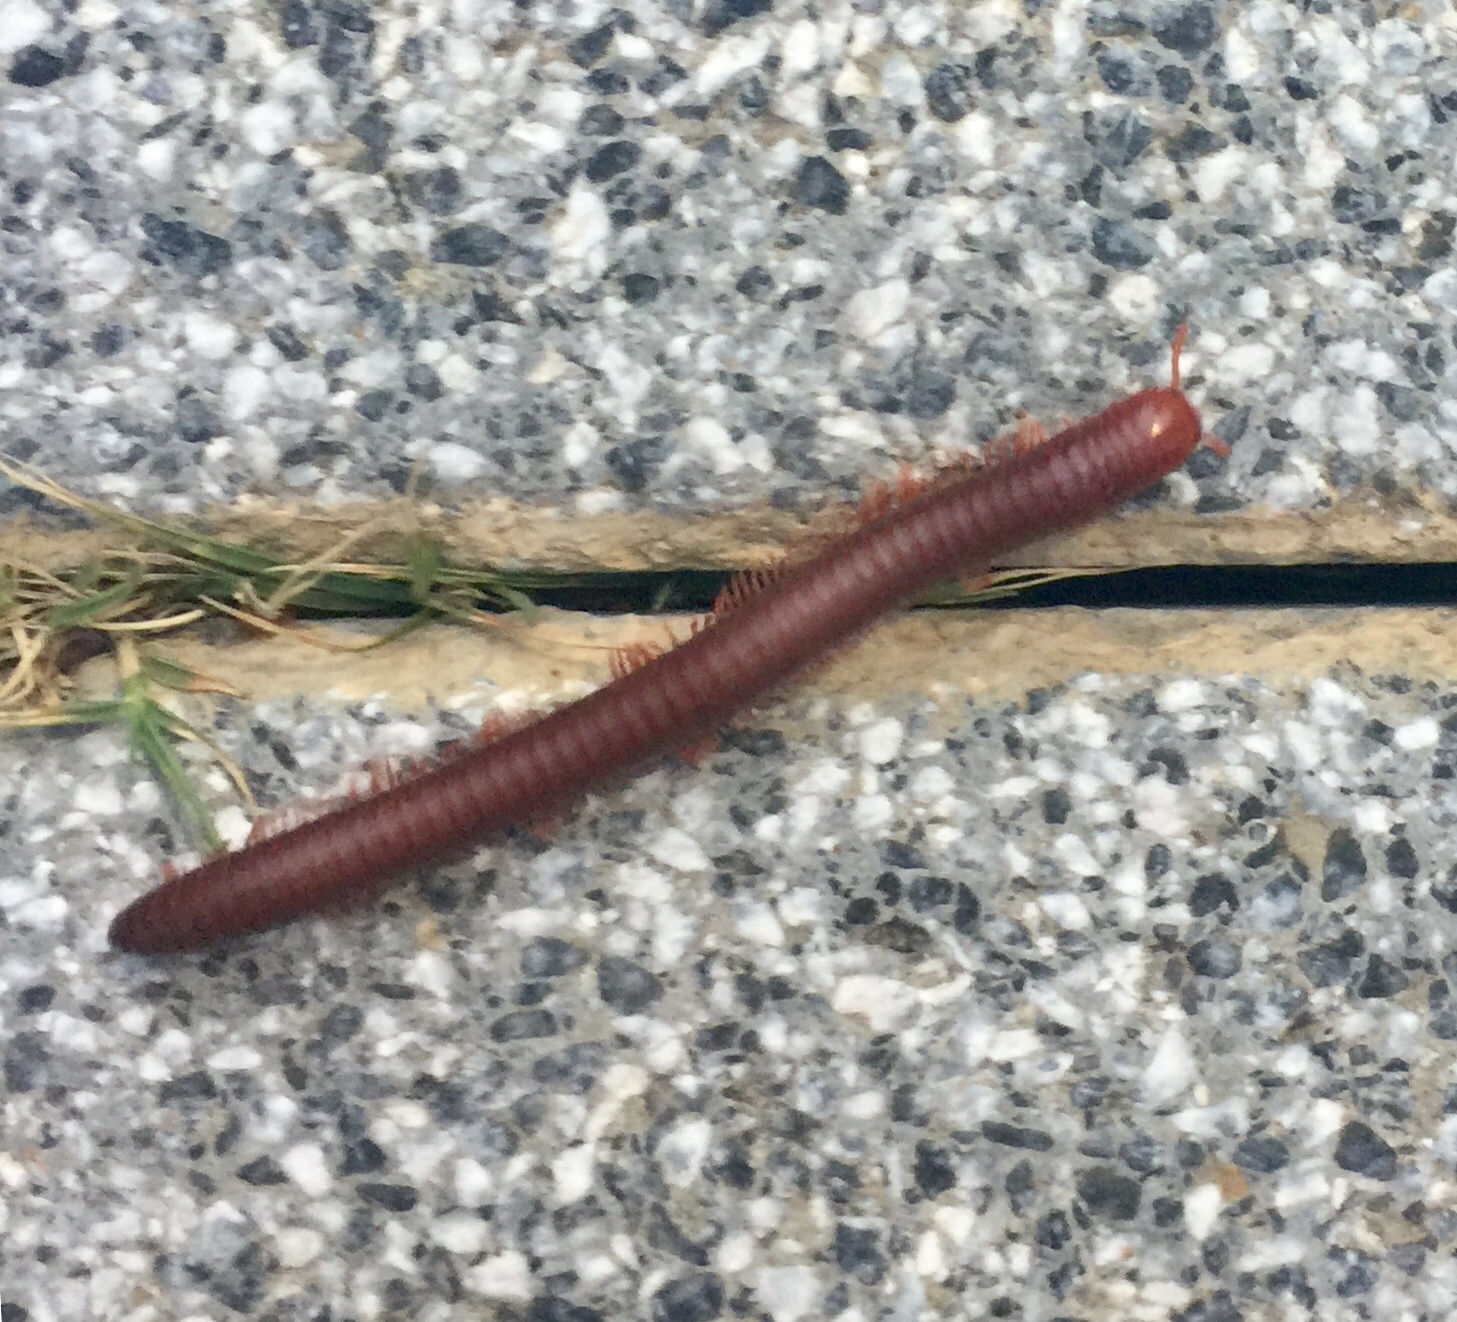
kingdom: Animalia
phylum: Arthropoda
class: Diplopoda
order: Spirobolida
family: Pachybolidae
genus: Trigoniulus
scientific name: Trigoniulus corallinus
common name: Millipede
